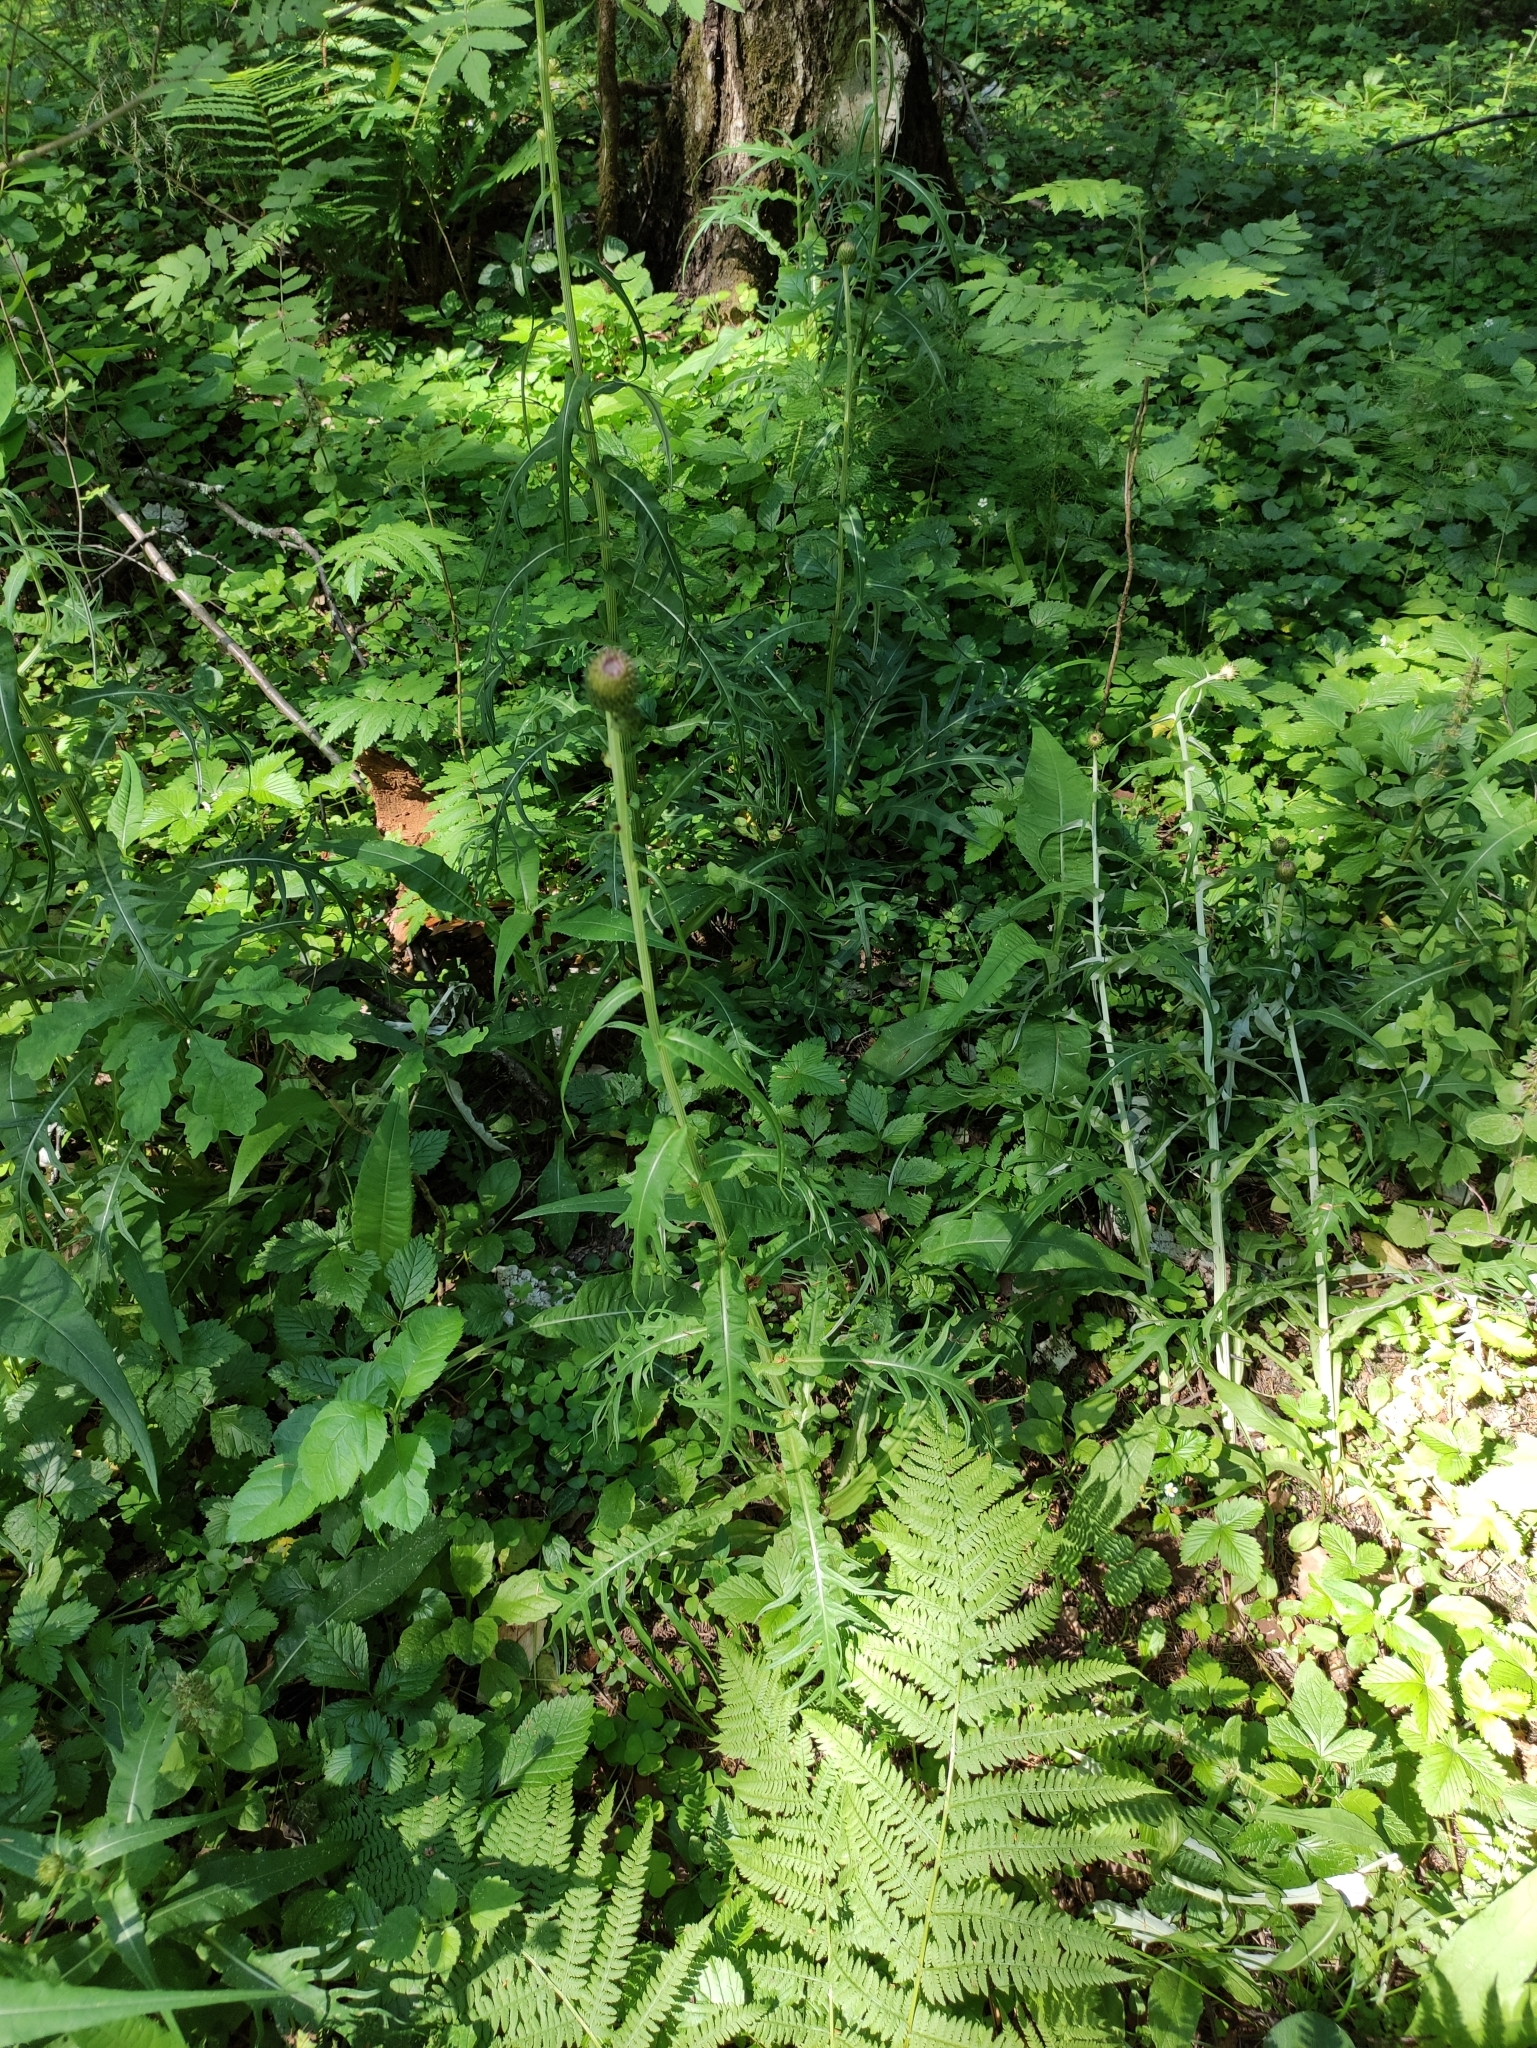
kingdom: Plantae
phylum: Tracheophyta
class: Magnoliopsida
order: Asterales
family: Asteraceae
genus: Cirsium
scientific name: Cirsium heterophyllum
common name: Melancholy thistle
